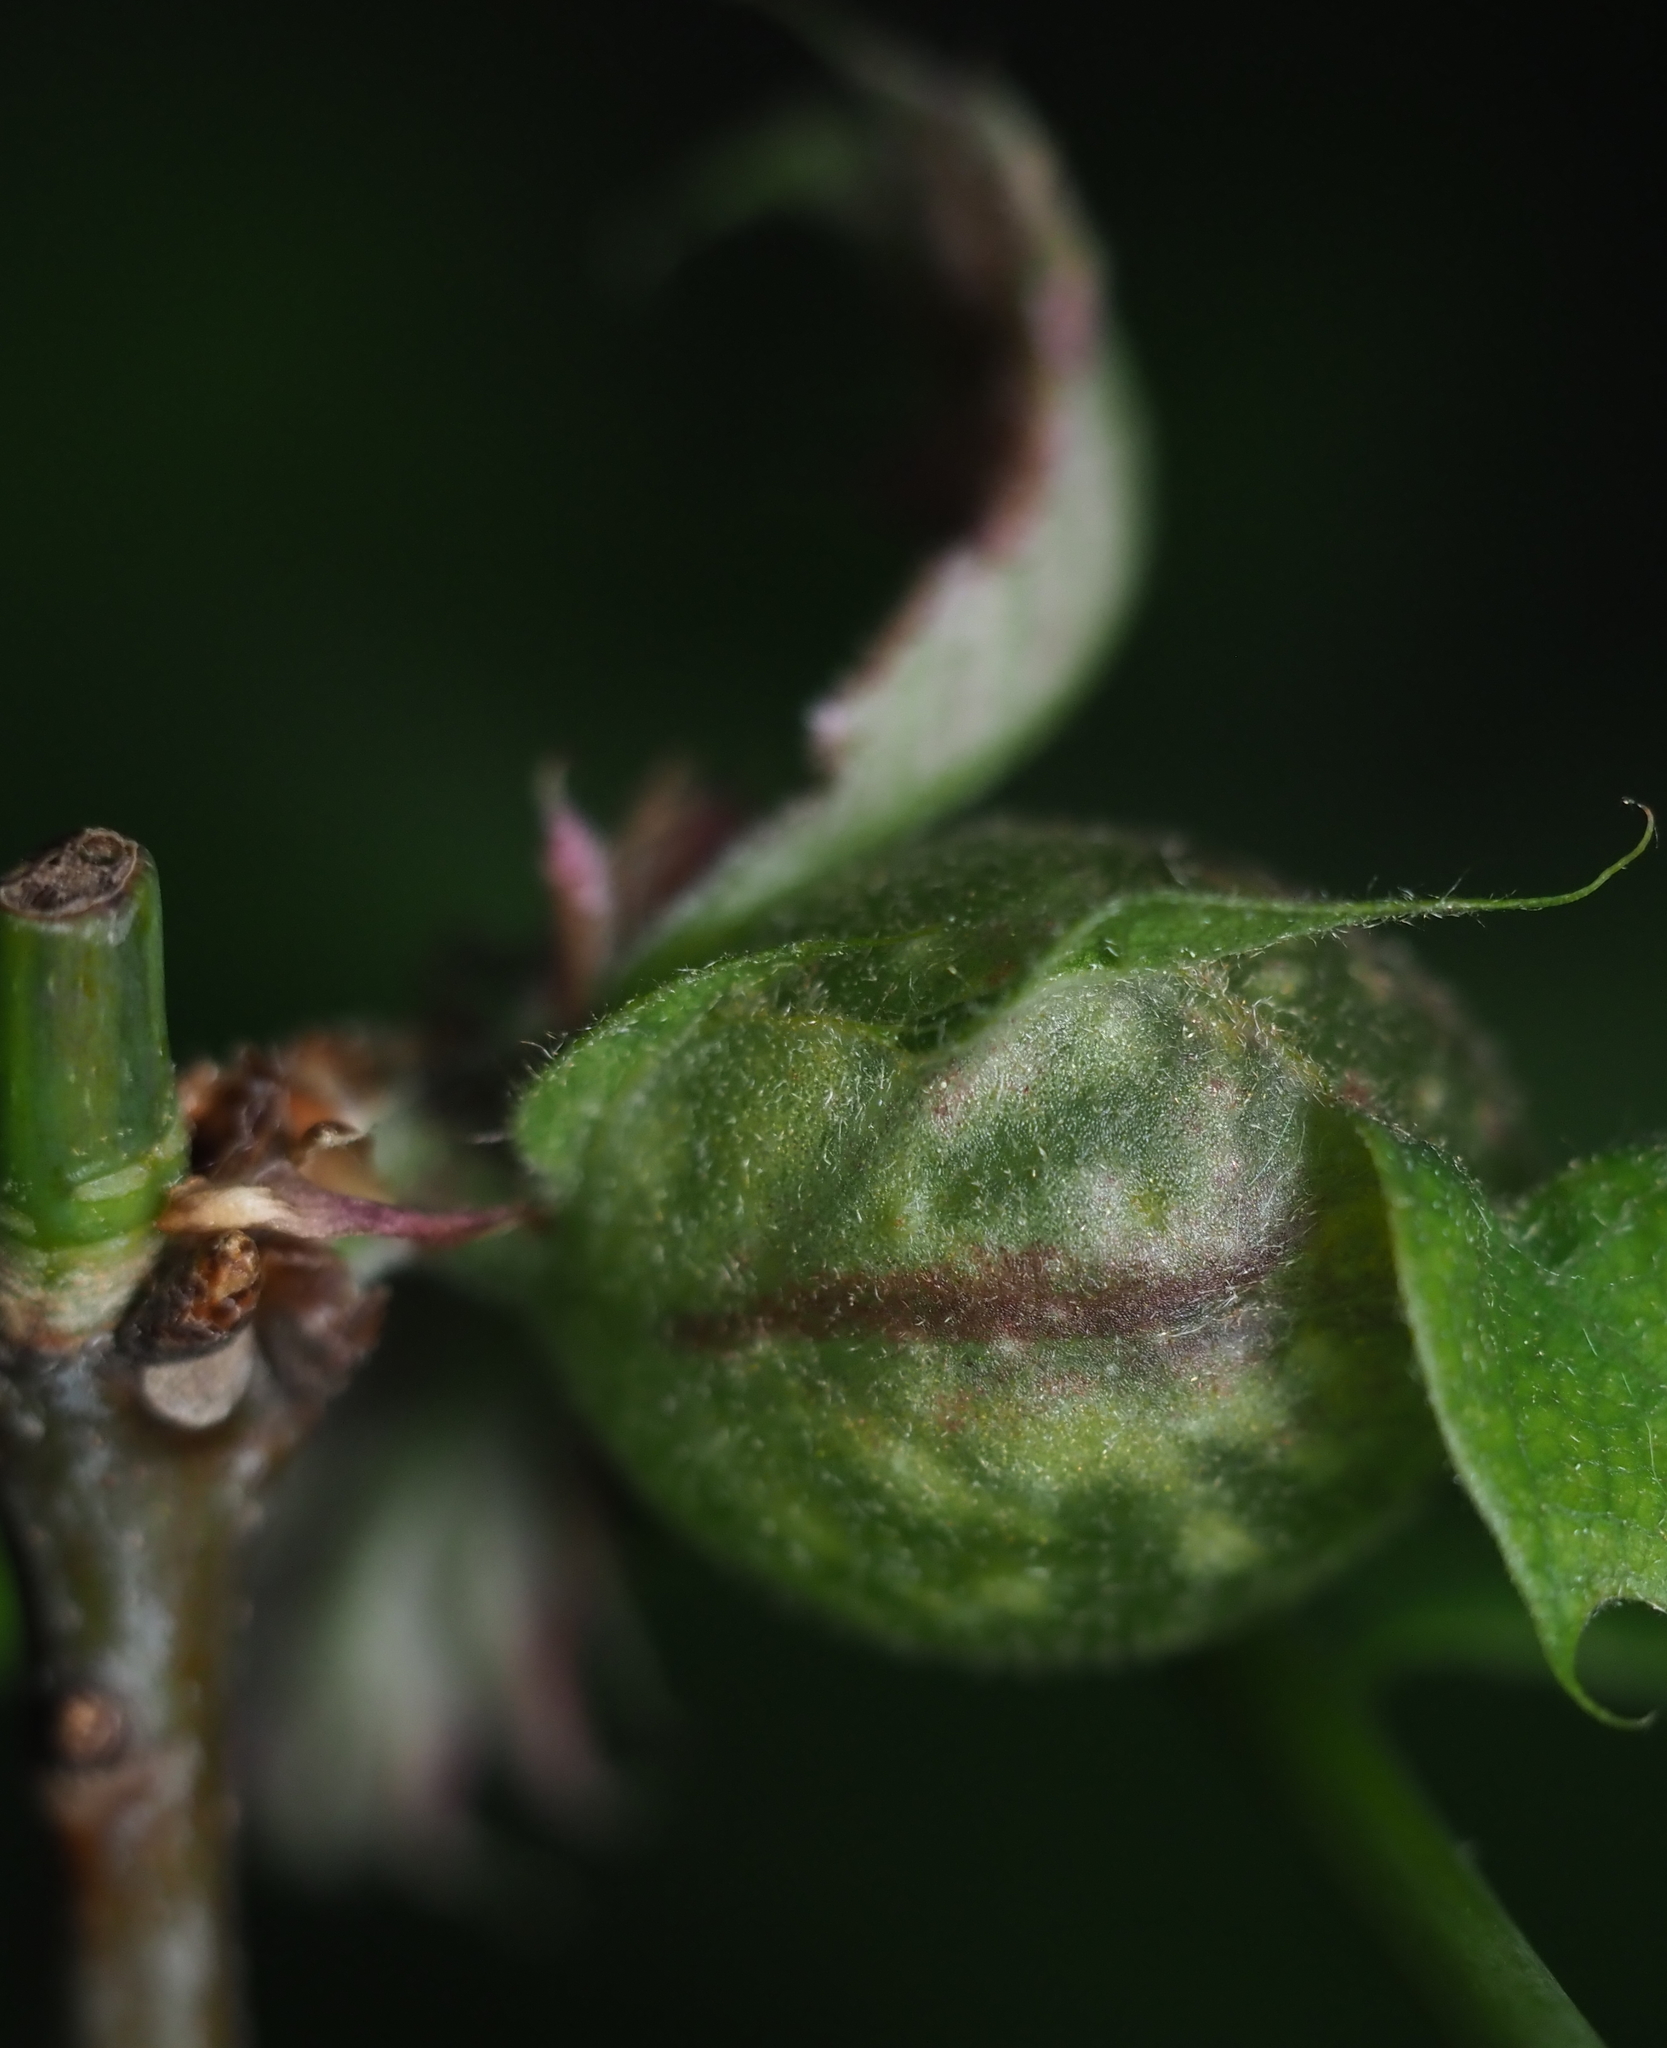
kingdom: Animalia
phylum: Arthropoda
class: Insecta
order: Hymenoptera
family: Cynipidae
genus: Dryocosmus
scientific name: Dryocosmus quercuspalustris
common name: Succulent oak gall wasp
